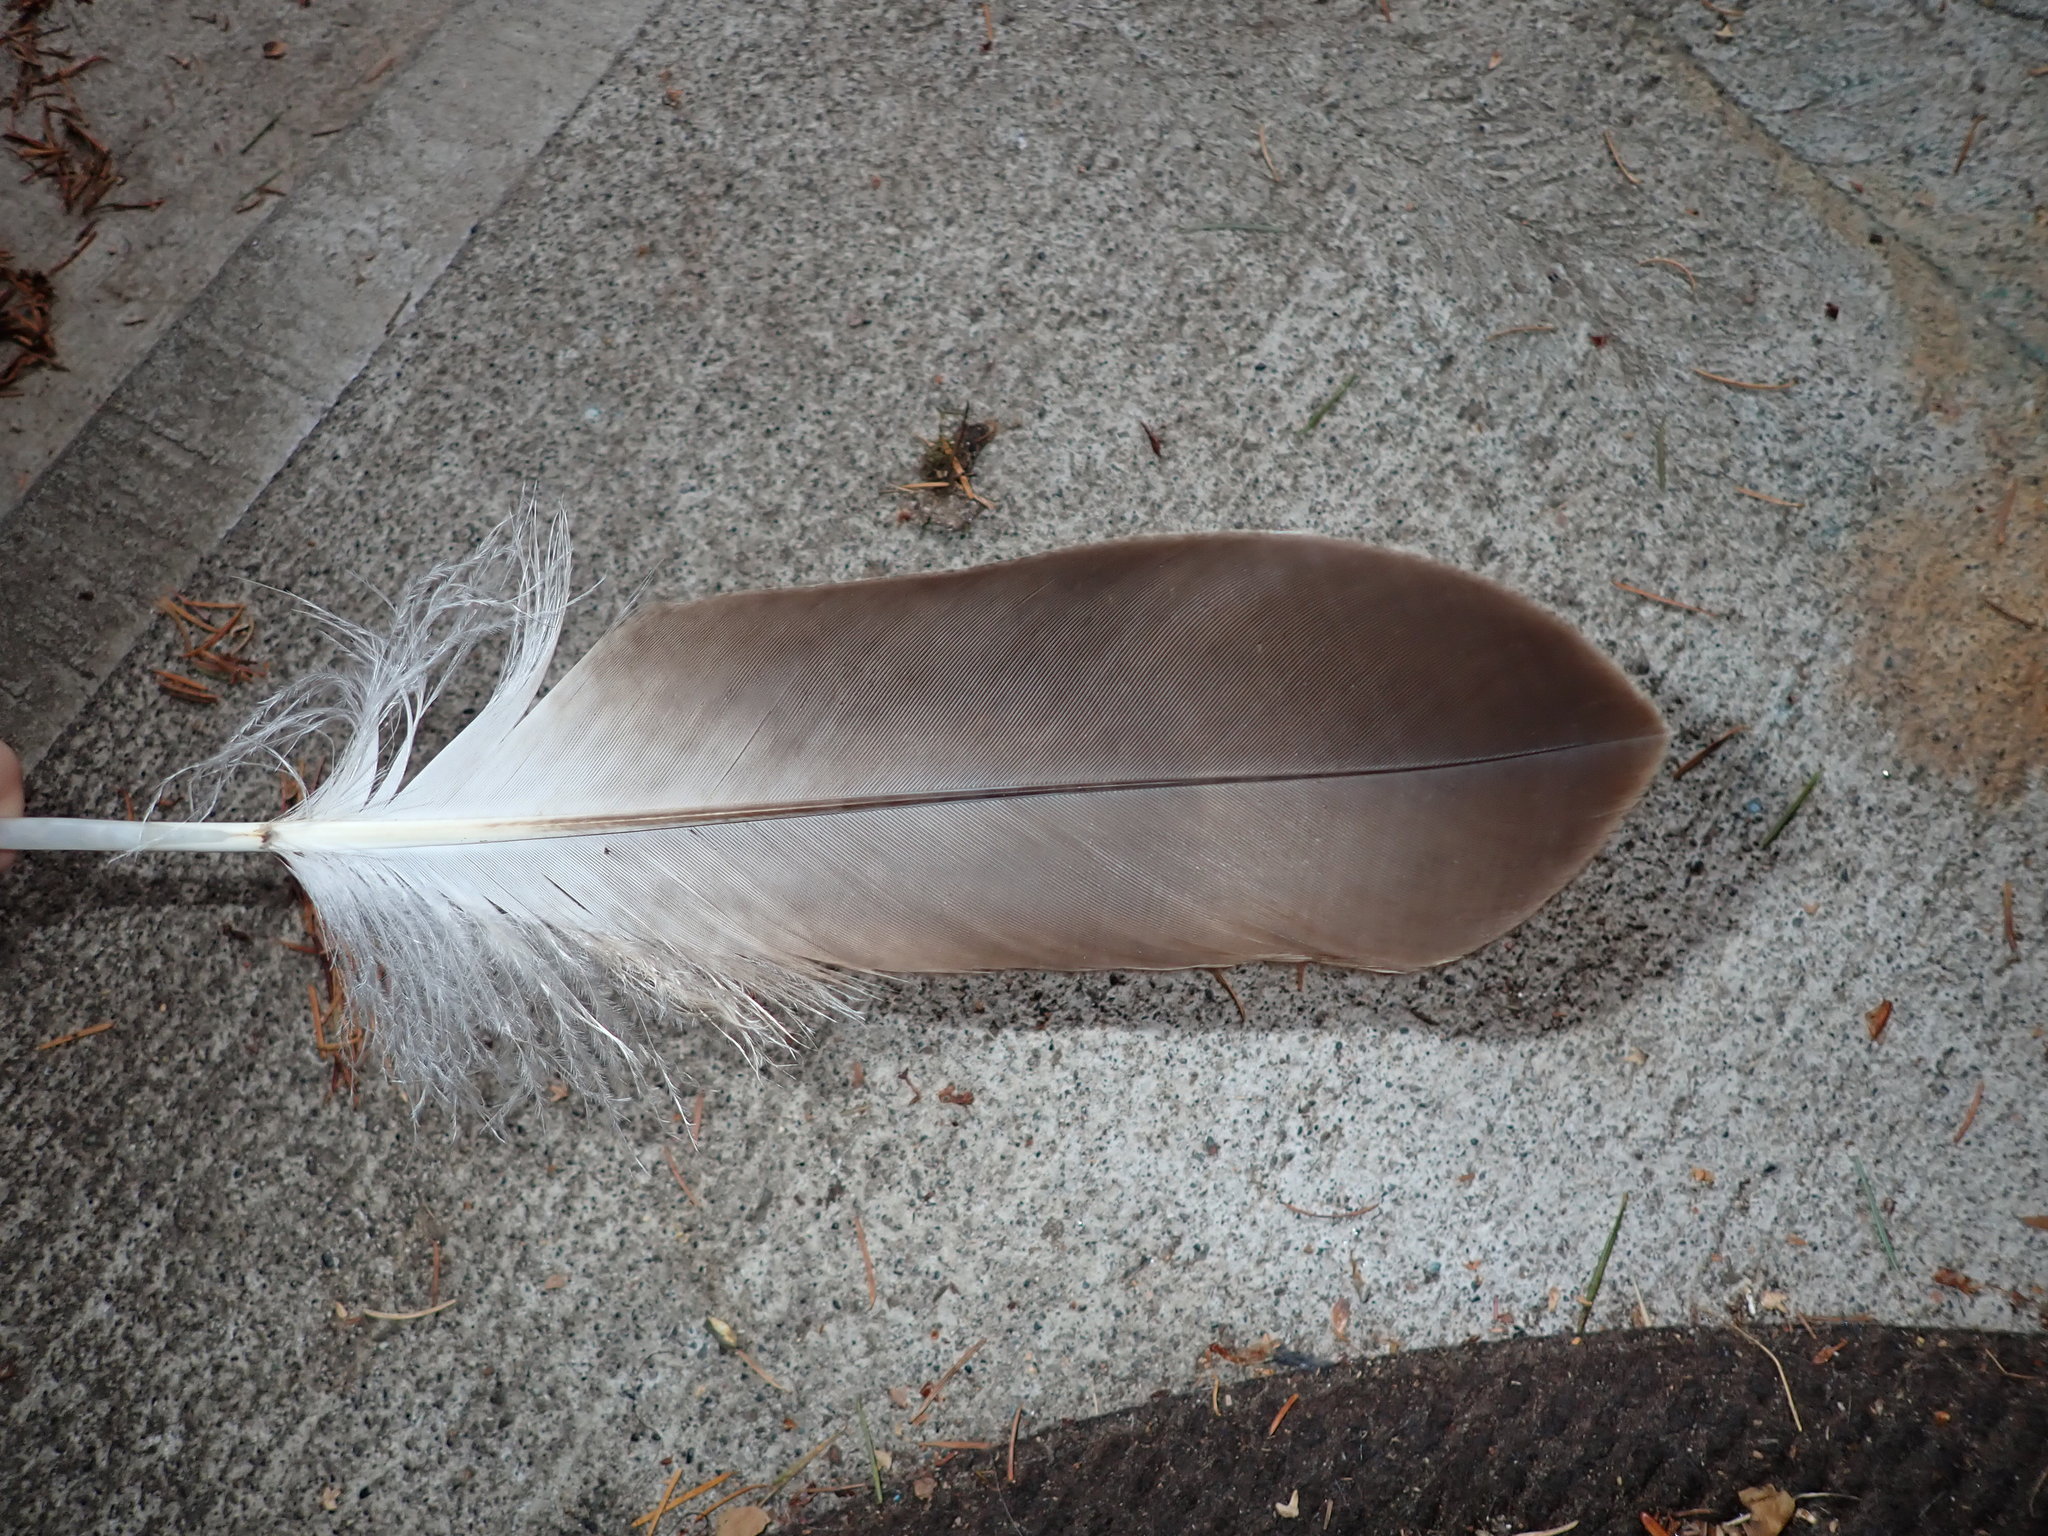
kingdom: Animalia
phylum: Chordata
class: Aves
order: Accipitriformes
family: Accipitridae
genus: Haliaeetus
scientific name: Haliaeetus leucocephalus
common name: Bald eagle
